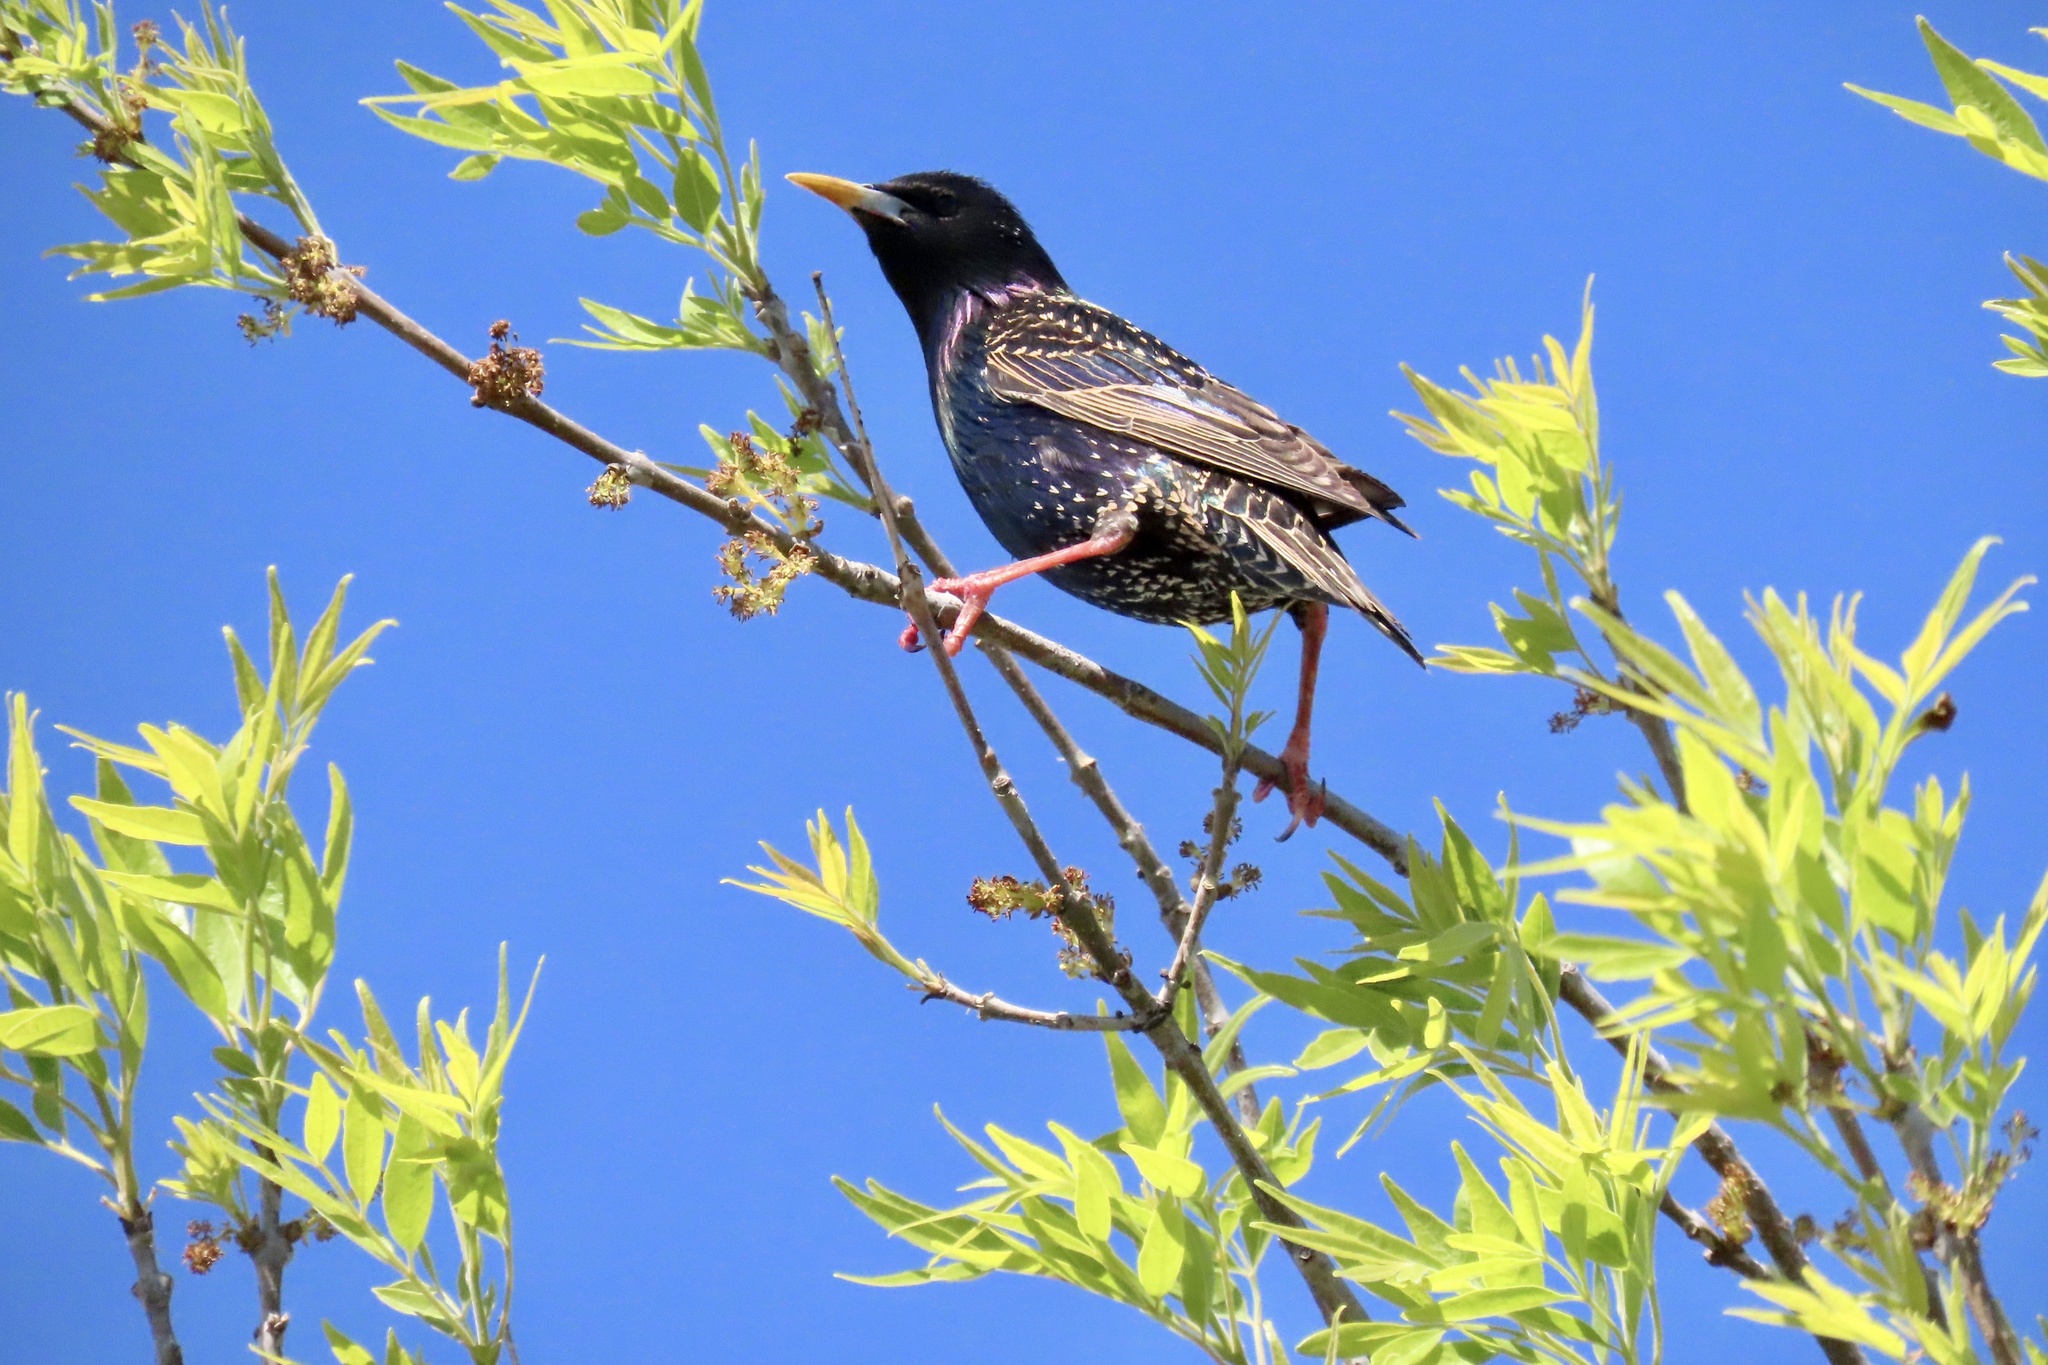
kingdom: Animalia
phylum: Chordata
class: Aves
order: Passeriformes
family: Sturnidae
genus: Sturnus
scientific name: Sturnus vulgaris
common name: Common starling
